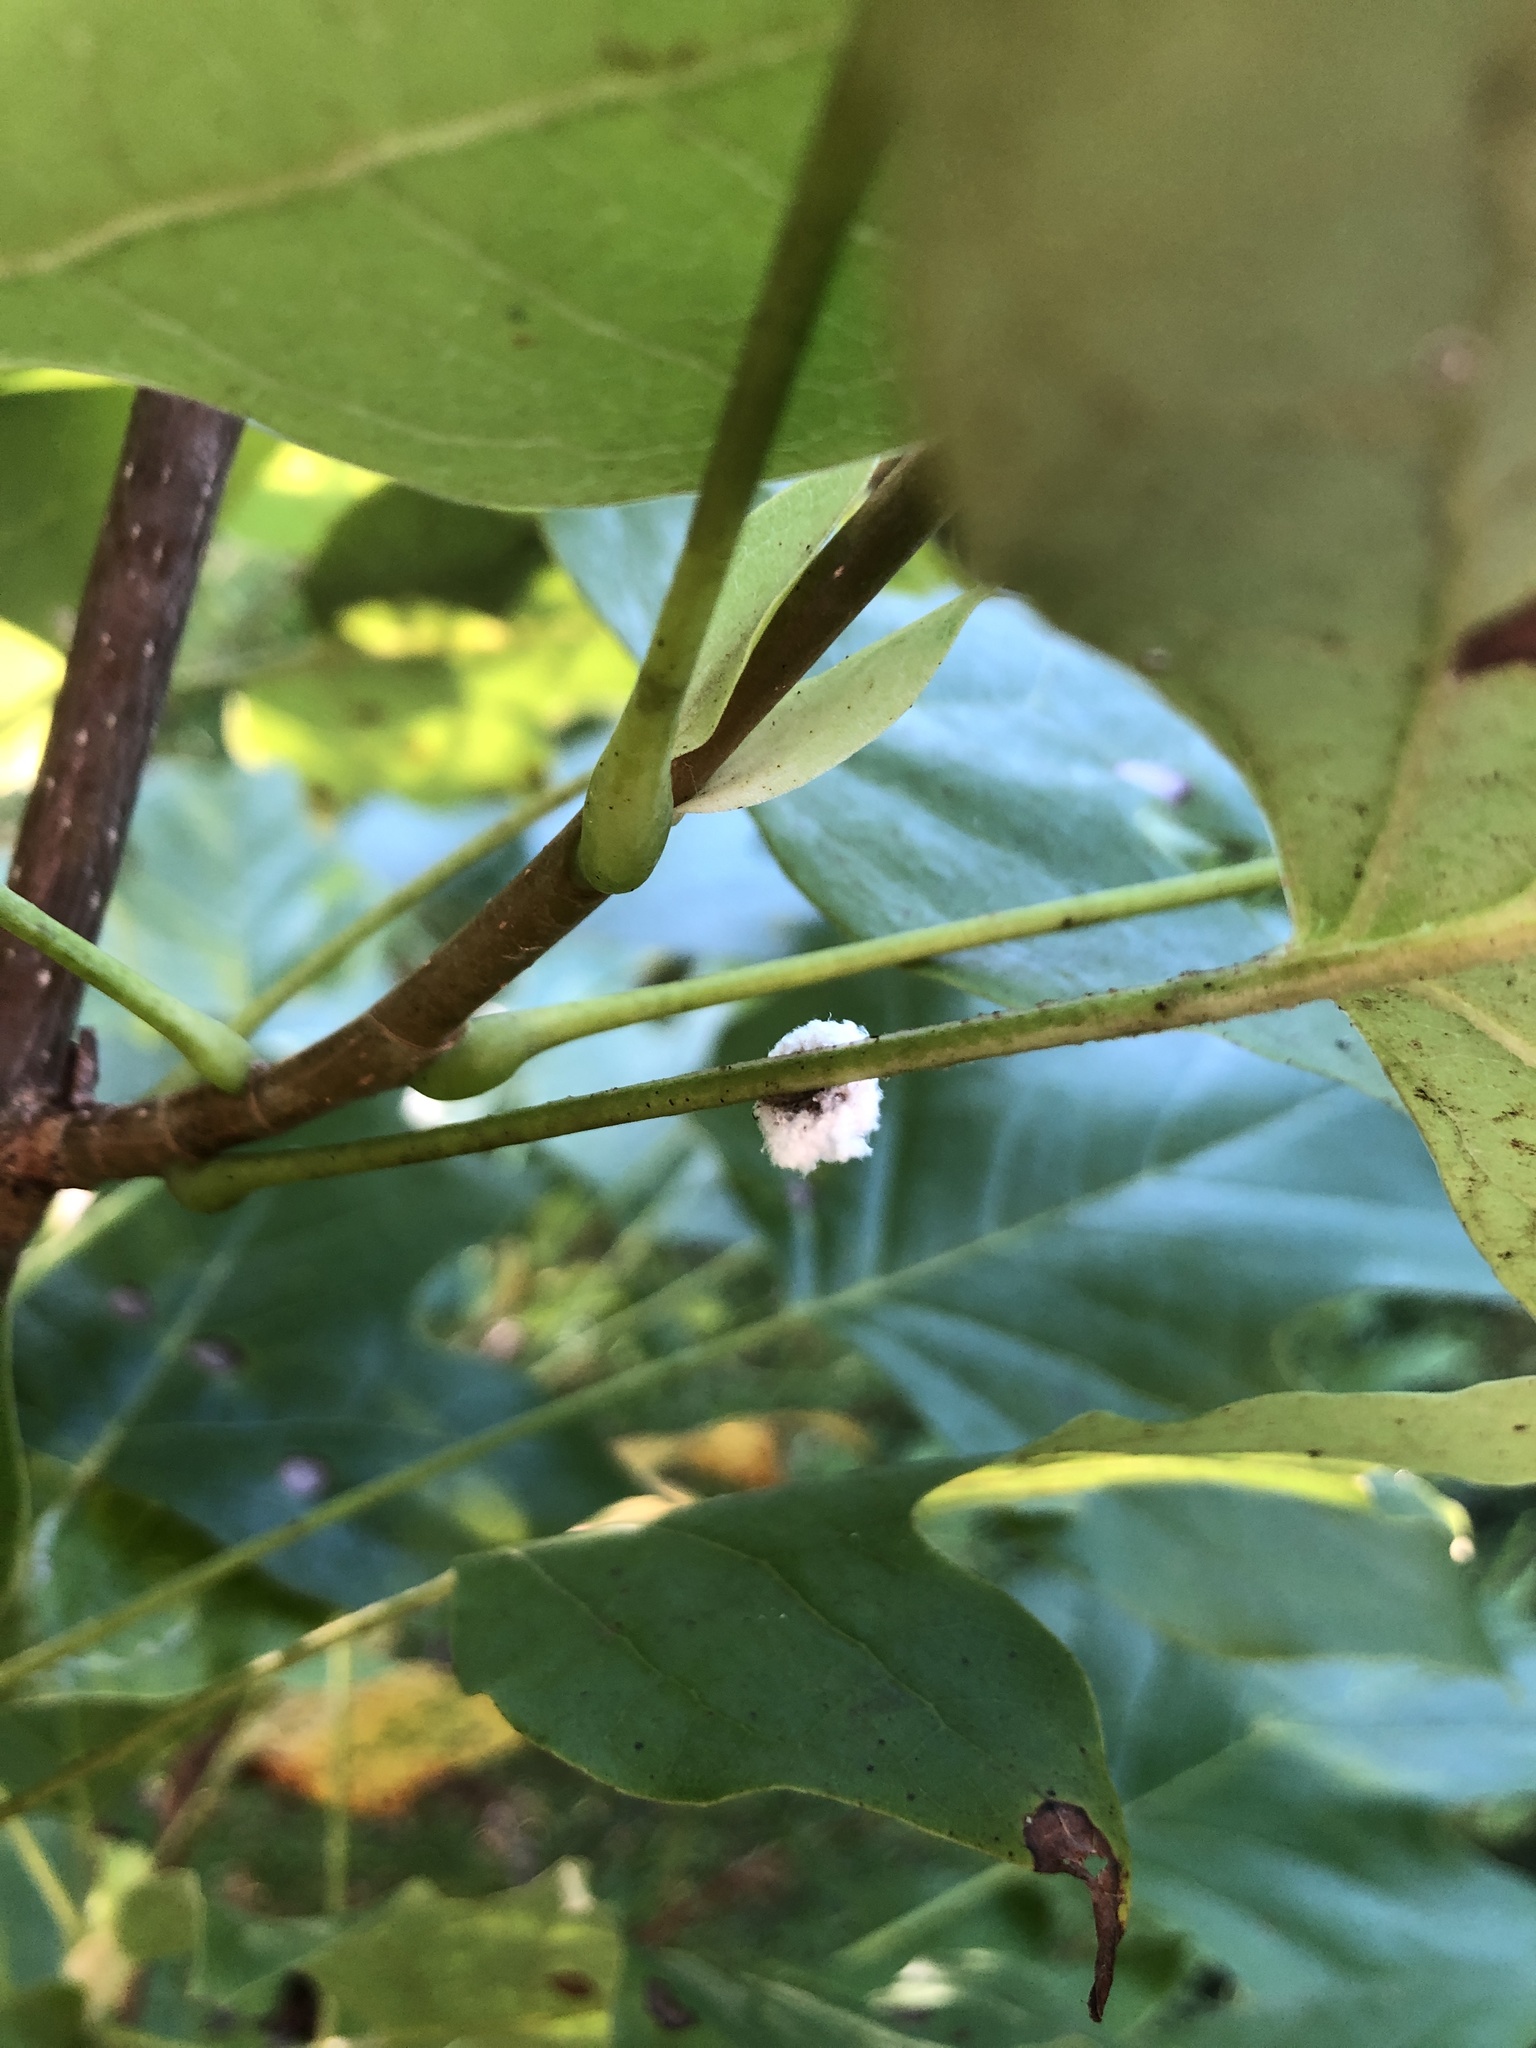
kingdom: Plantae
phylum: Tracheophyta
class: Magnoliopsida
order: Magnoliales
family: Magnoliaceae
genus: Liriodendron
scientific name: Liriodendron tulipifera
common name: Tulip tree
